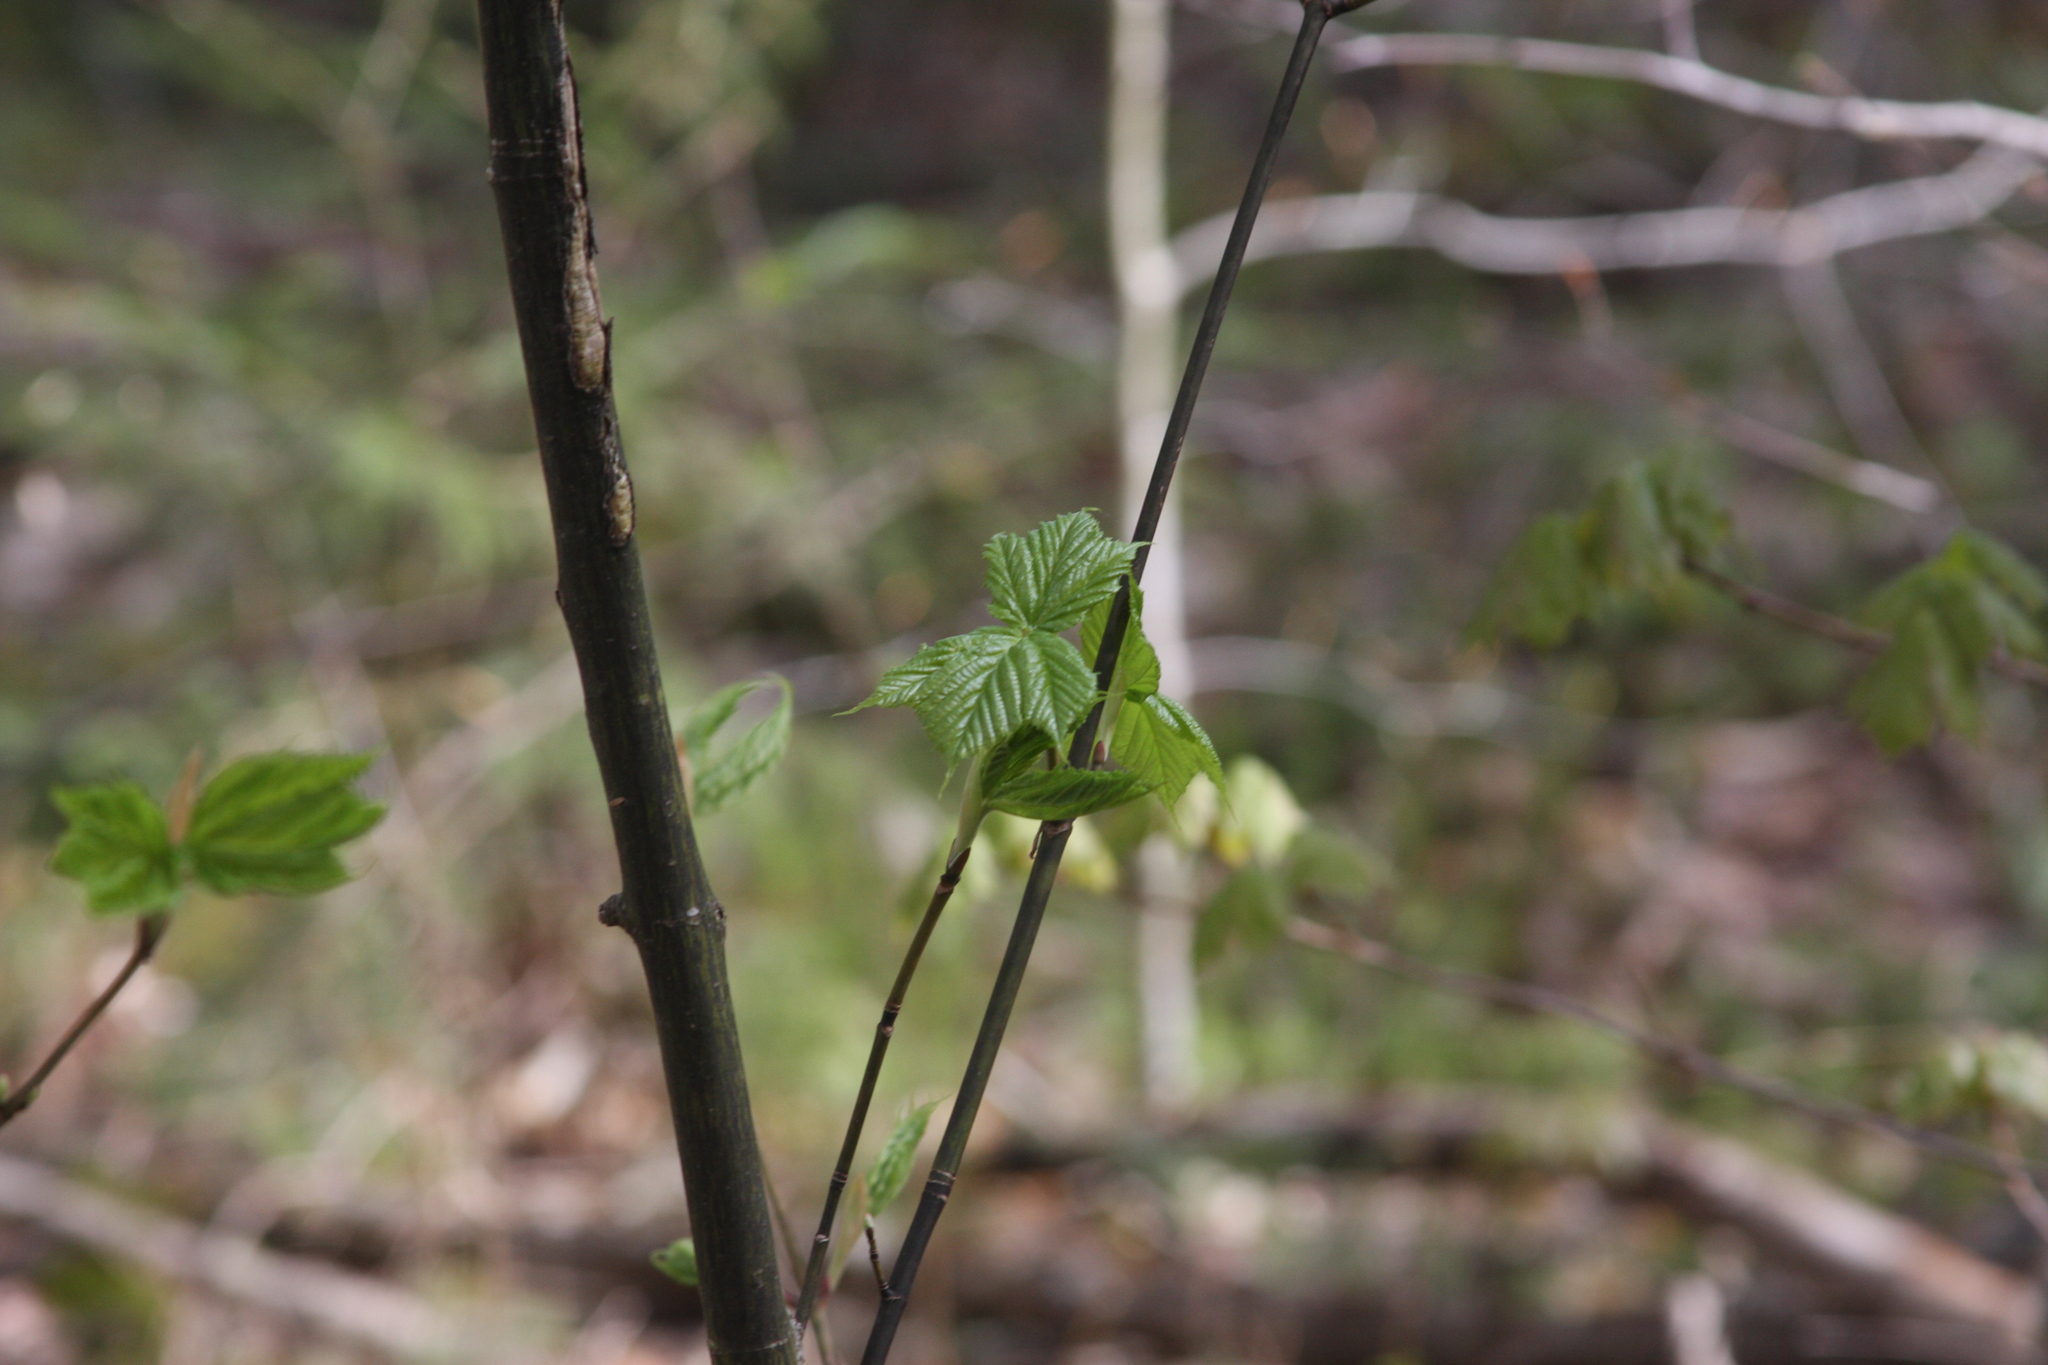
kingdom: Plantae
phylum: Tracheophyta
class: Magnoliopsida
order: Sapindales
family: Sapindaceae
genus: Acer
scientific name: Acer pensylvanicum
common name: Moosewood
